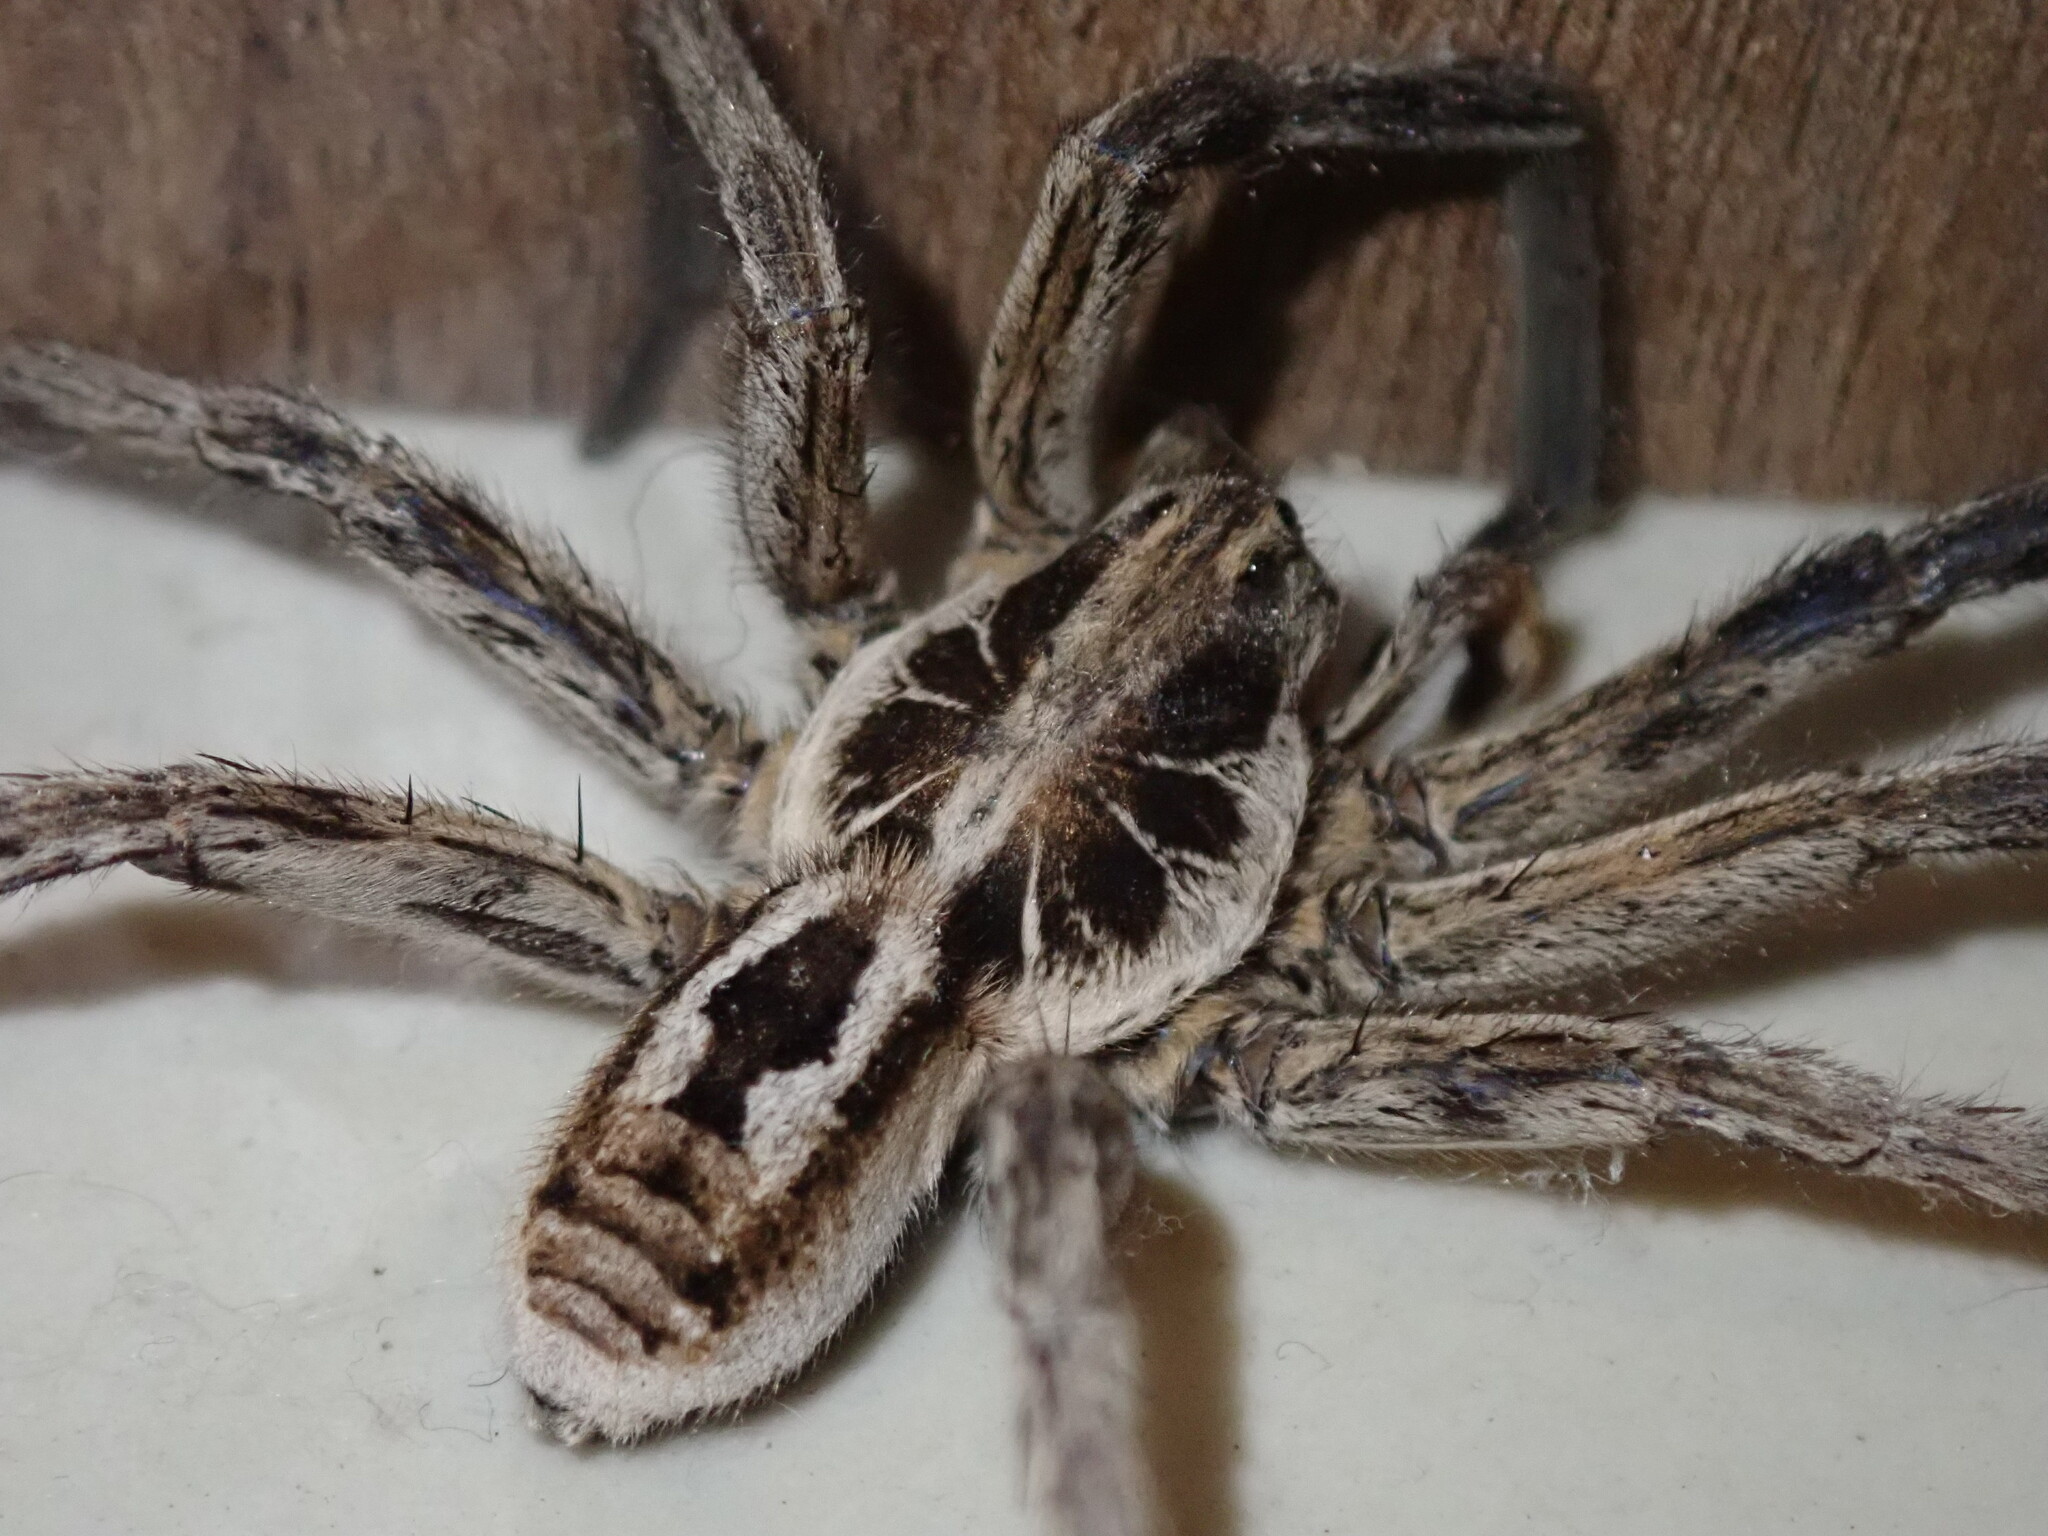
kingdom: Animalia
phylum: Arthropoda
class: Arachnida
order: Araneae
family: Lycosidae
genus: Lycosa
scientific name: Lycosa erythrognatha
